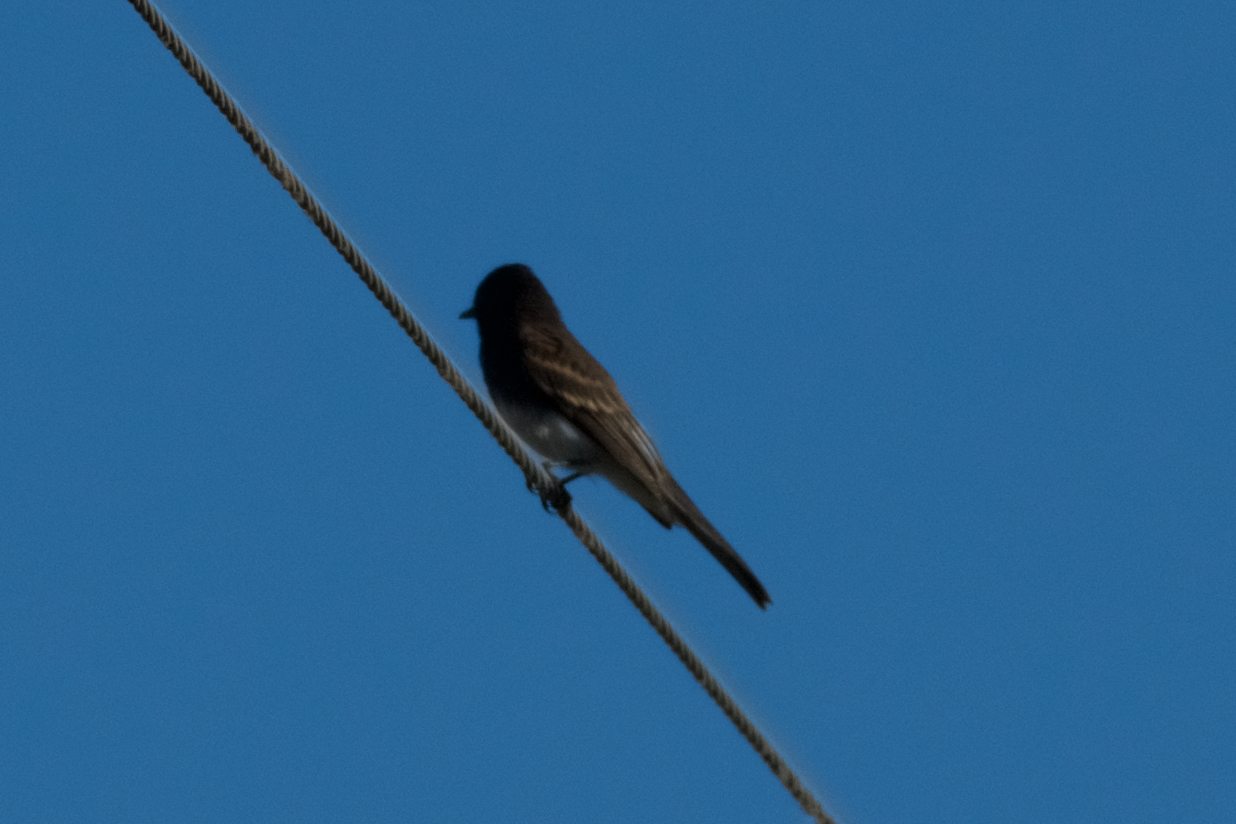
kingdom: Animalia
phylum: Chordata
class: Aves
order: Passeriformes
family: Tyrannidae
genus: Sayornis
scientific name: Sayornis nigricans
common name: Black phoebe
